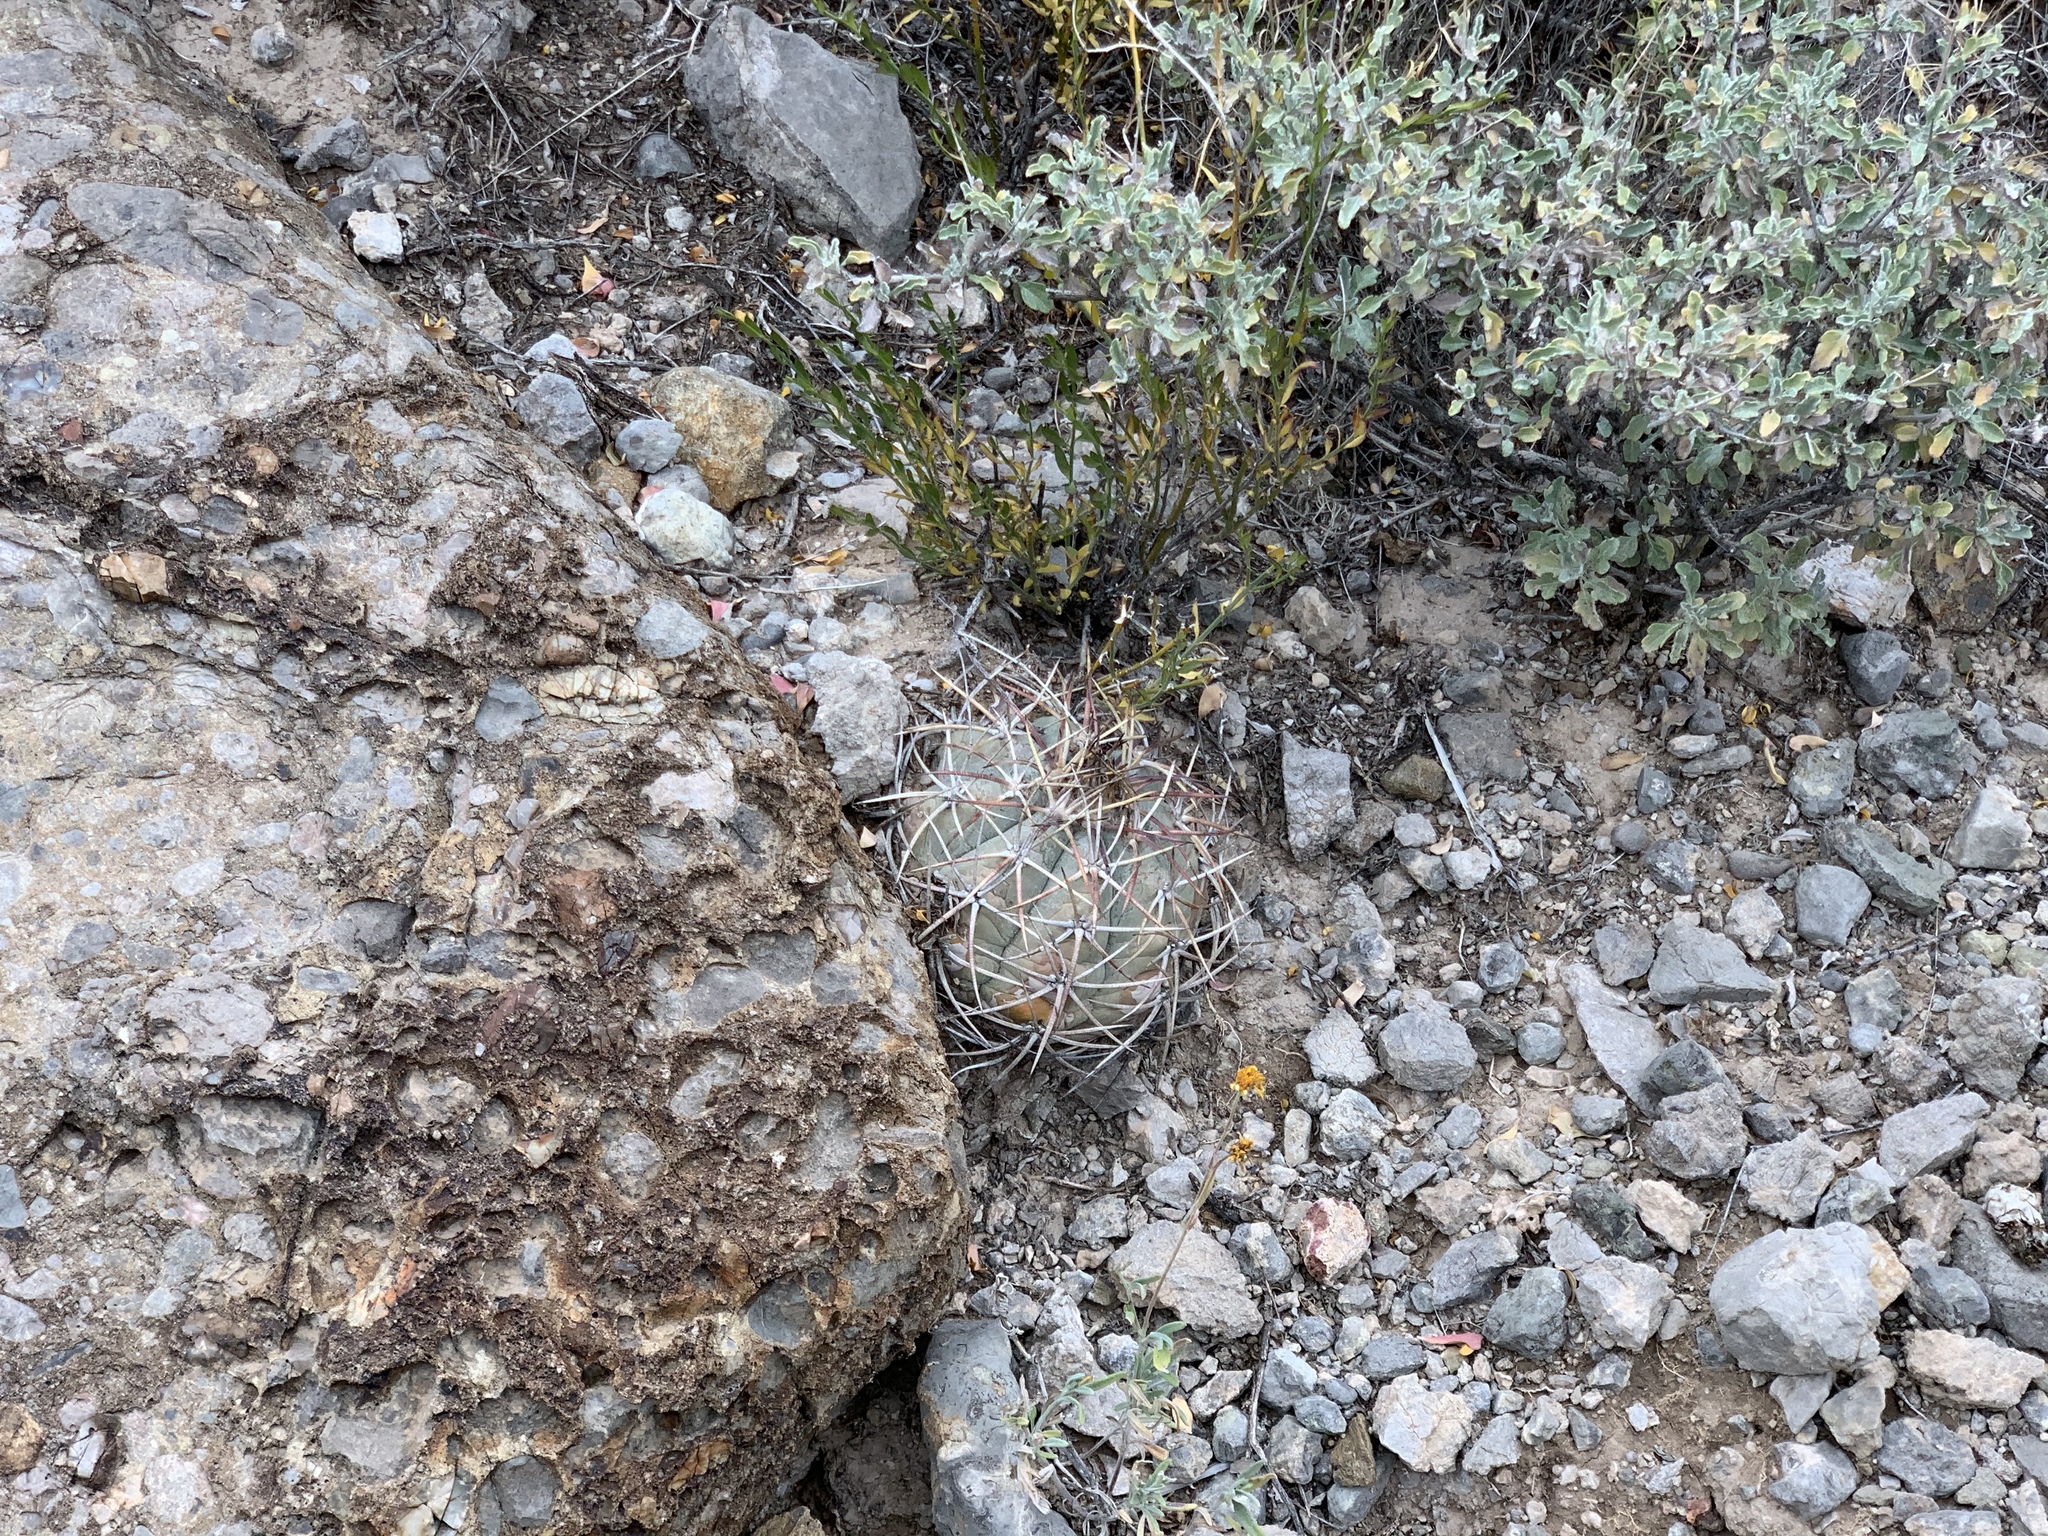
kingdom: Plantae
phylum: Tracheophyta
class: Magnoliopsida
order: Caryophyllales
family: Cactaceae
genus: Echinocactus
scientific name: Echinocactus horizonthalonius
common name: Devilshead
